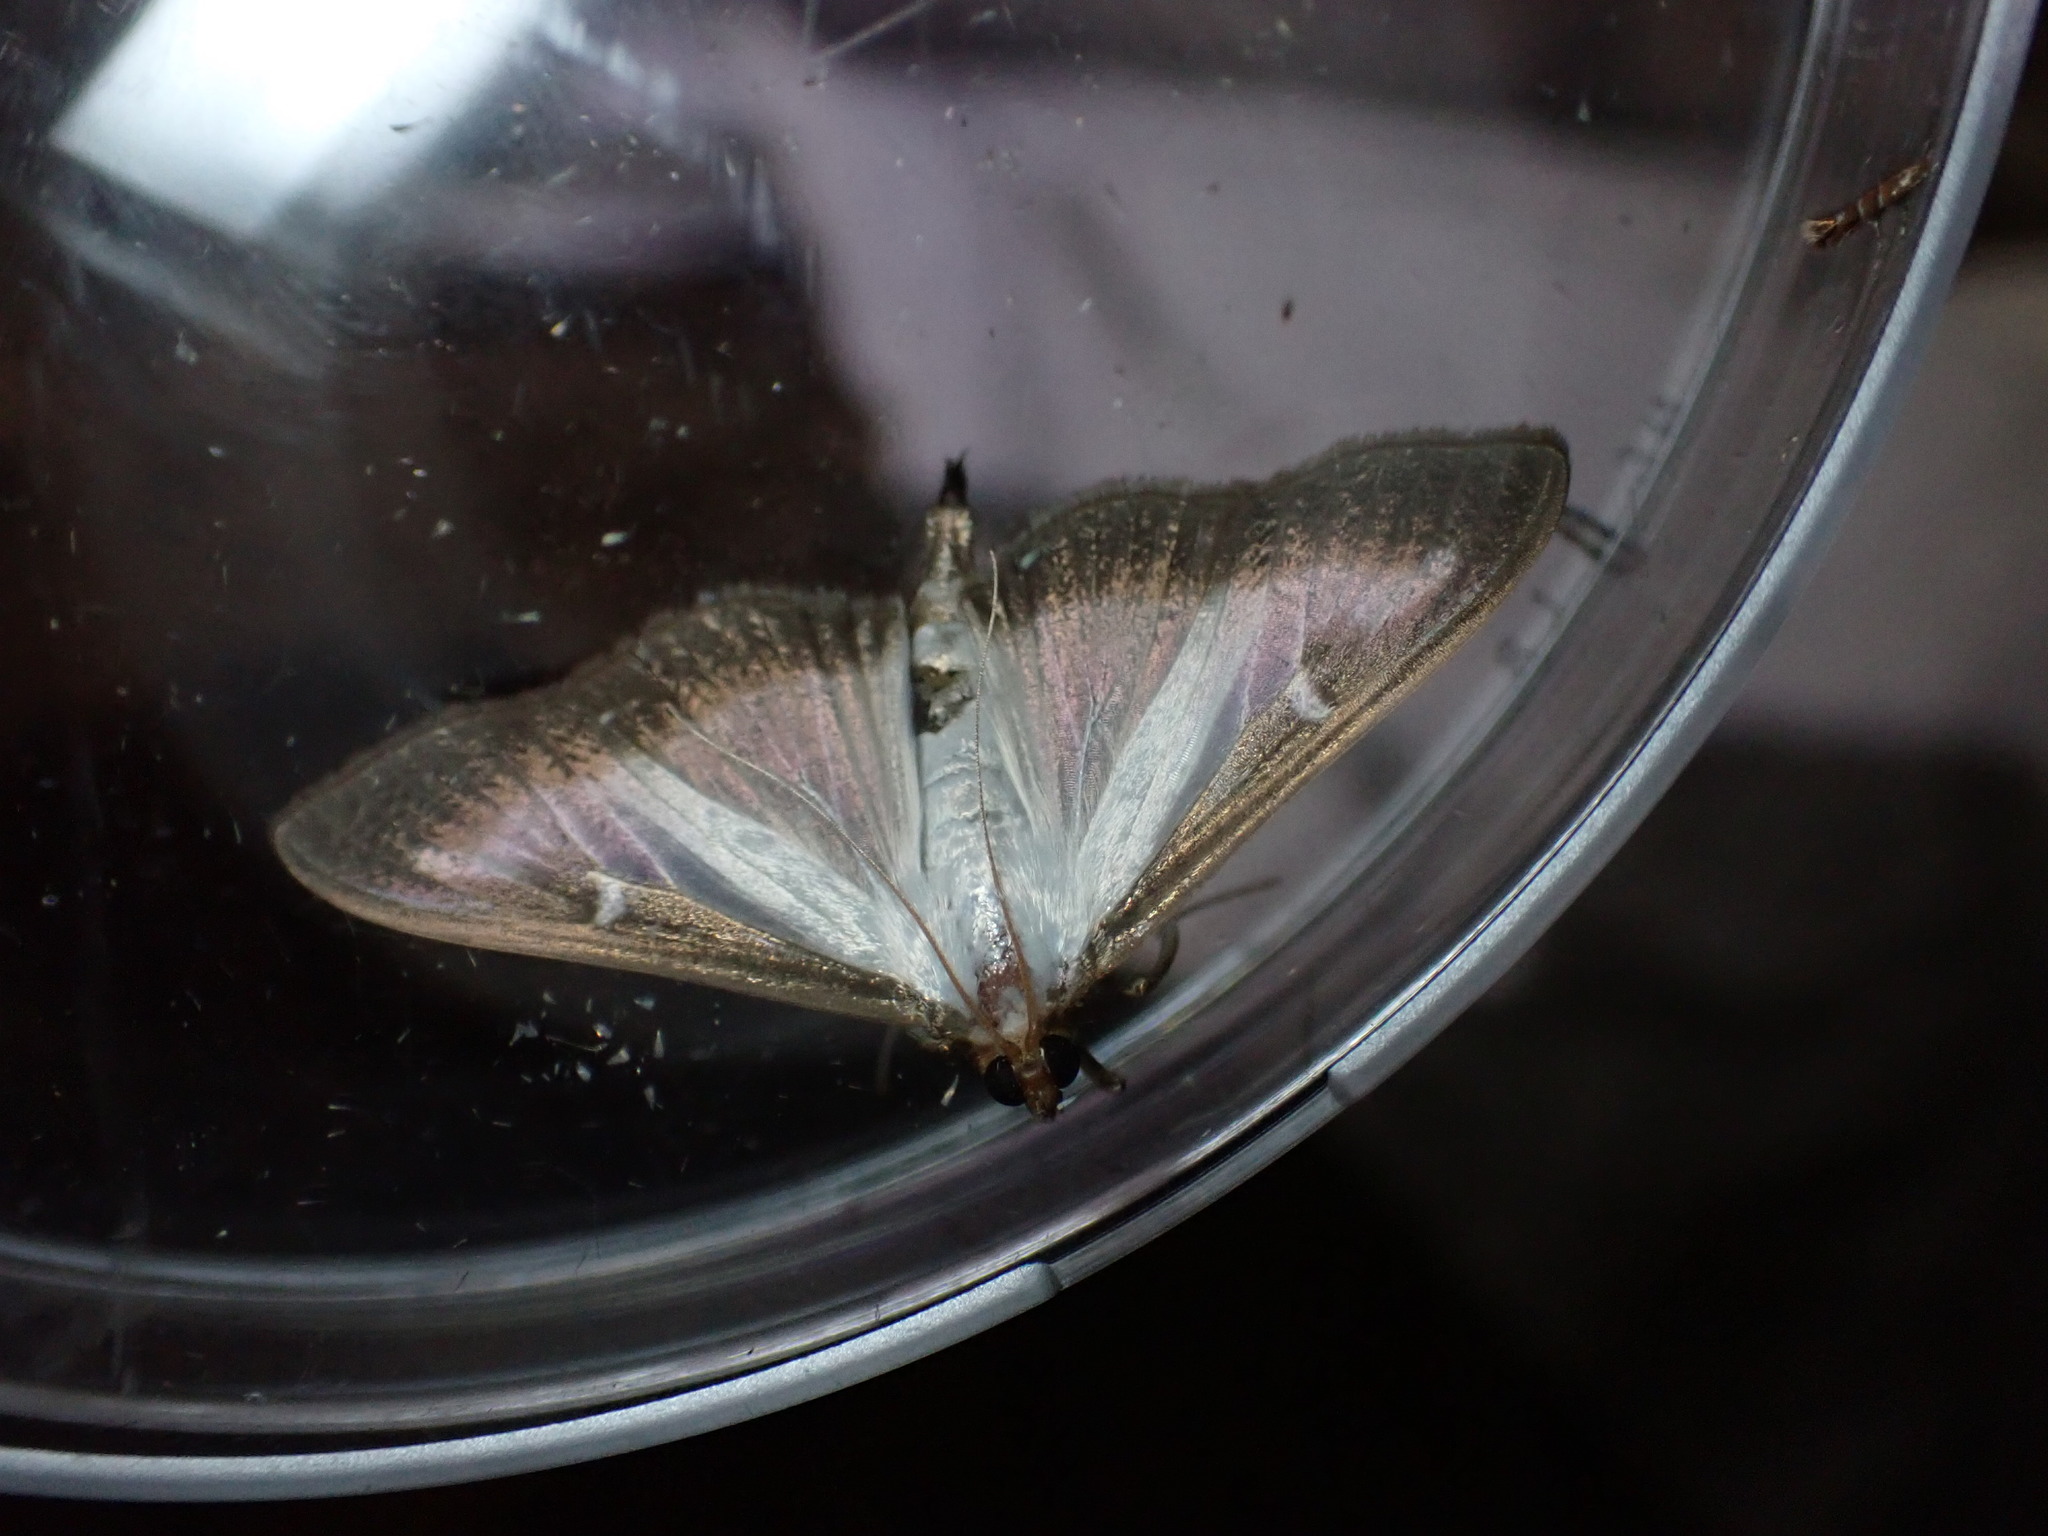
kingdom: Animalia
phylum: Arthropoda
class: Insecta
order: Lepidoptera
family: Crambidae
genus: Cydalima
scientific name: Cydalima perspectalis
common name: Box tree moth
